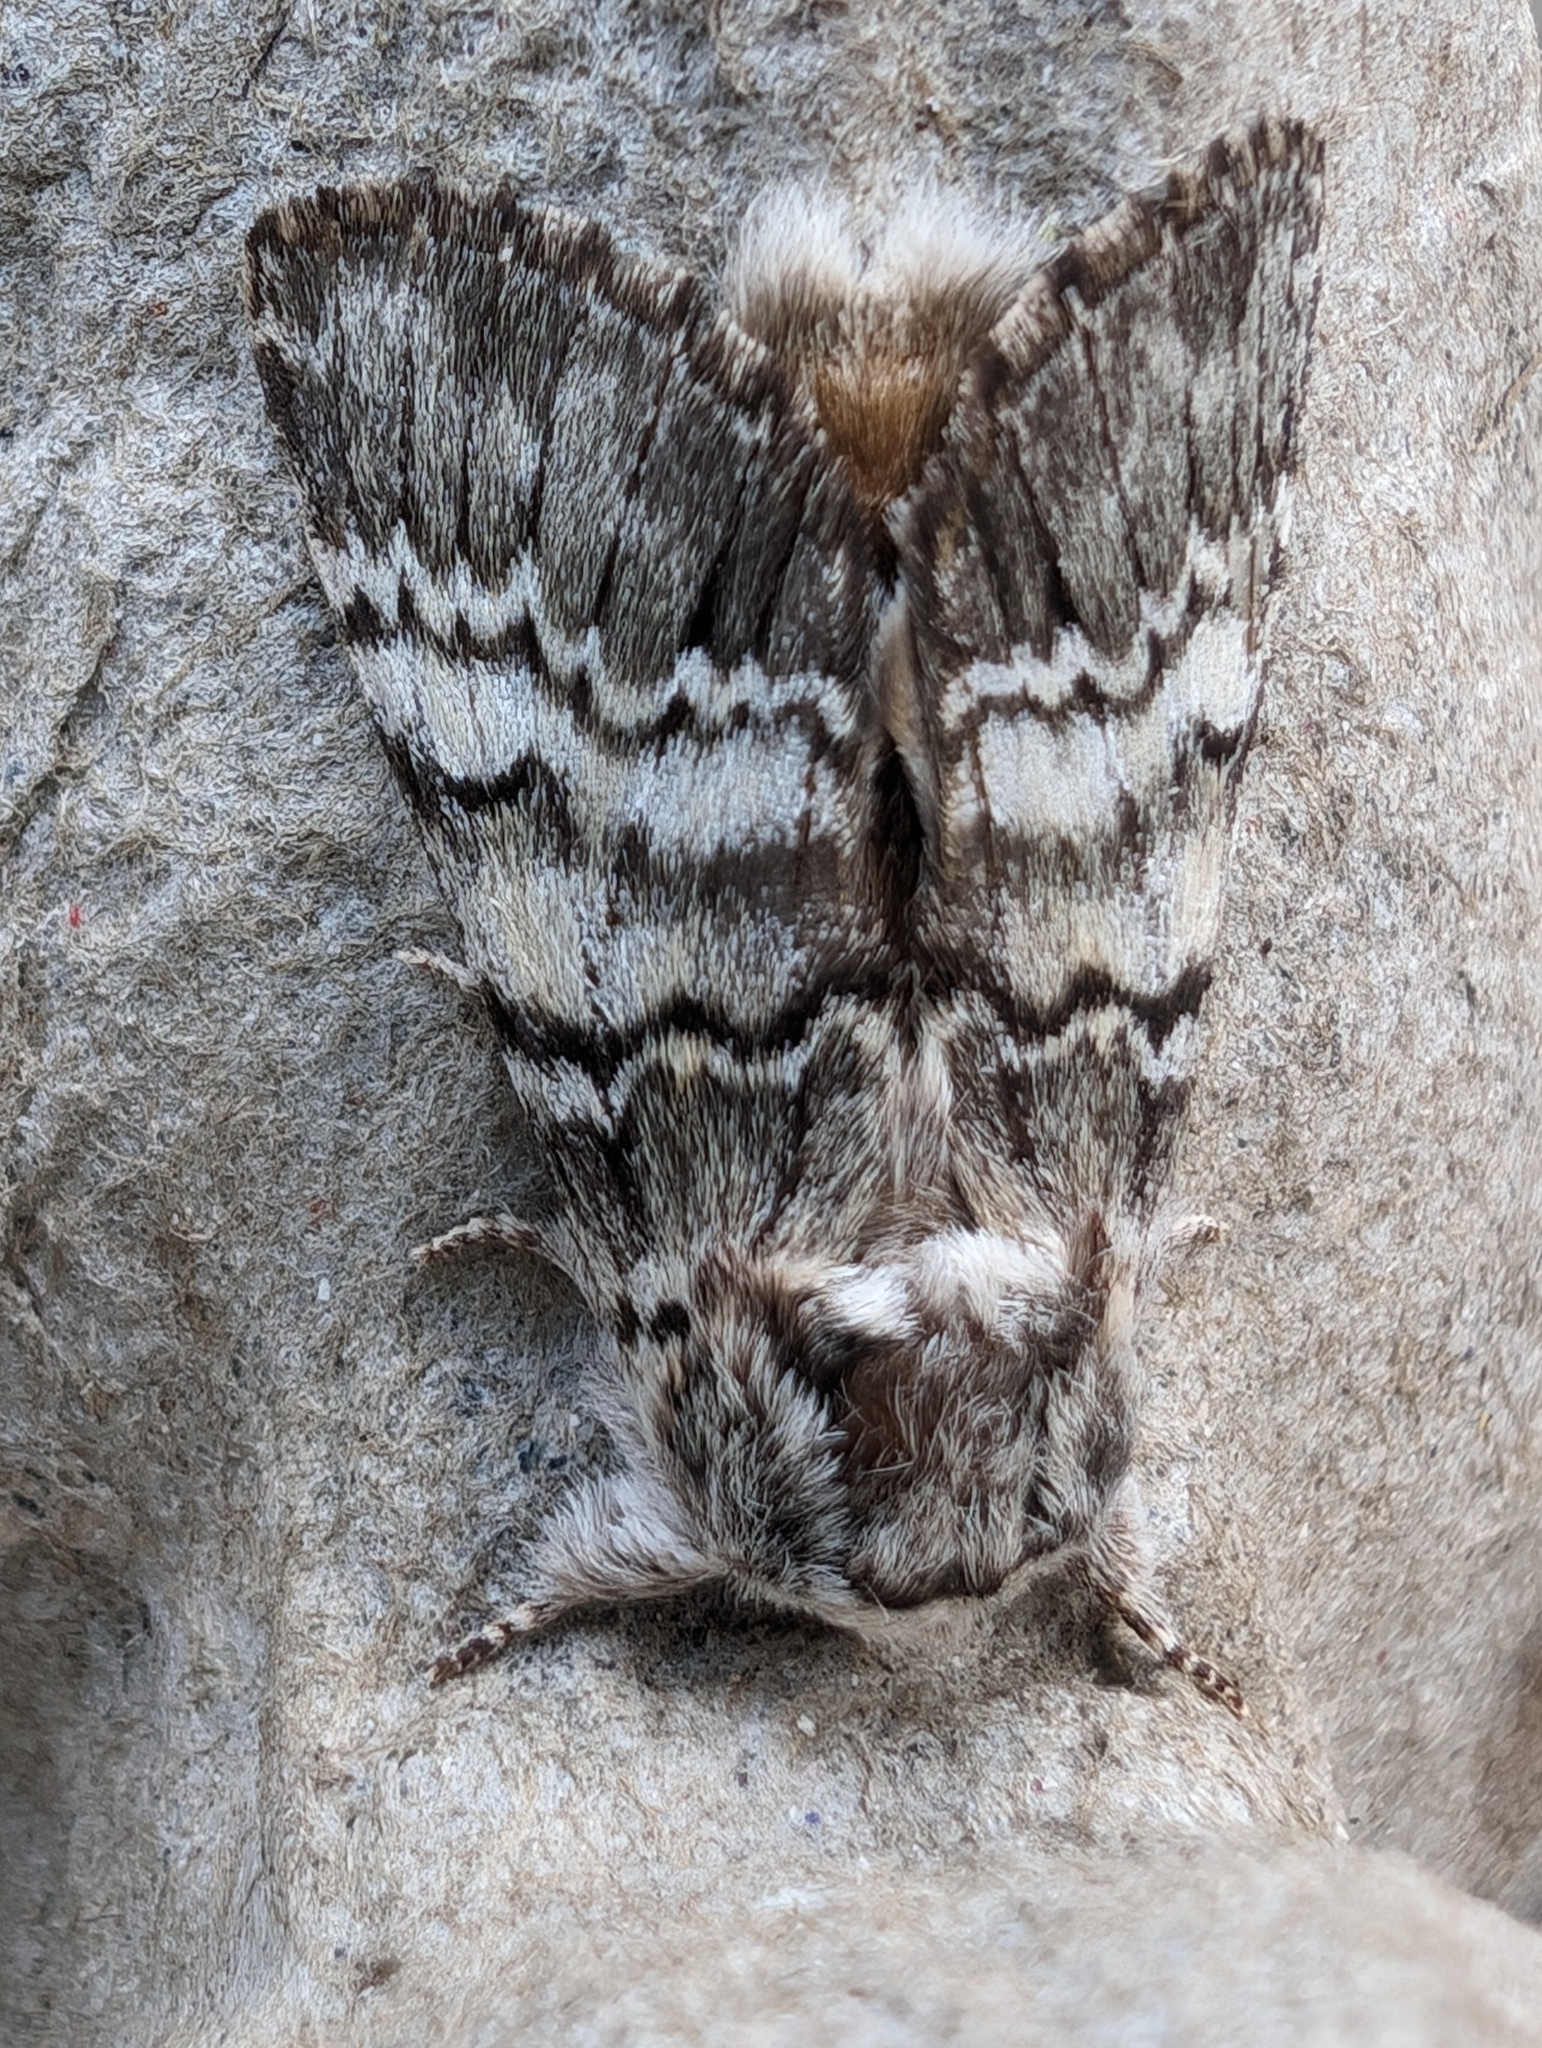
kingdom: Animalia
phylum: Arthropoda
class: Insecta
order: Lepidoptera
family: Notodontidae
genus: Drymonia
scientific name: Drymonia ruficornis
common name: Lunar marbled brown
